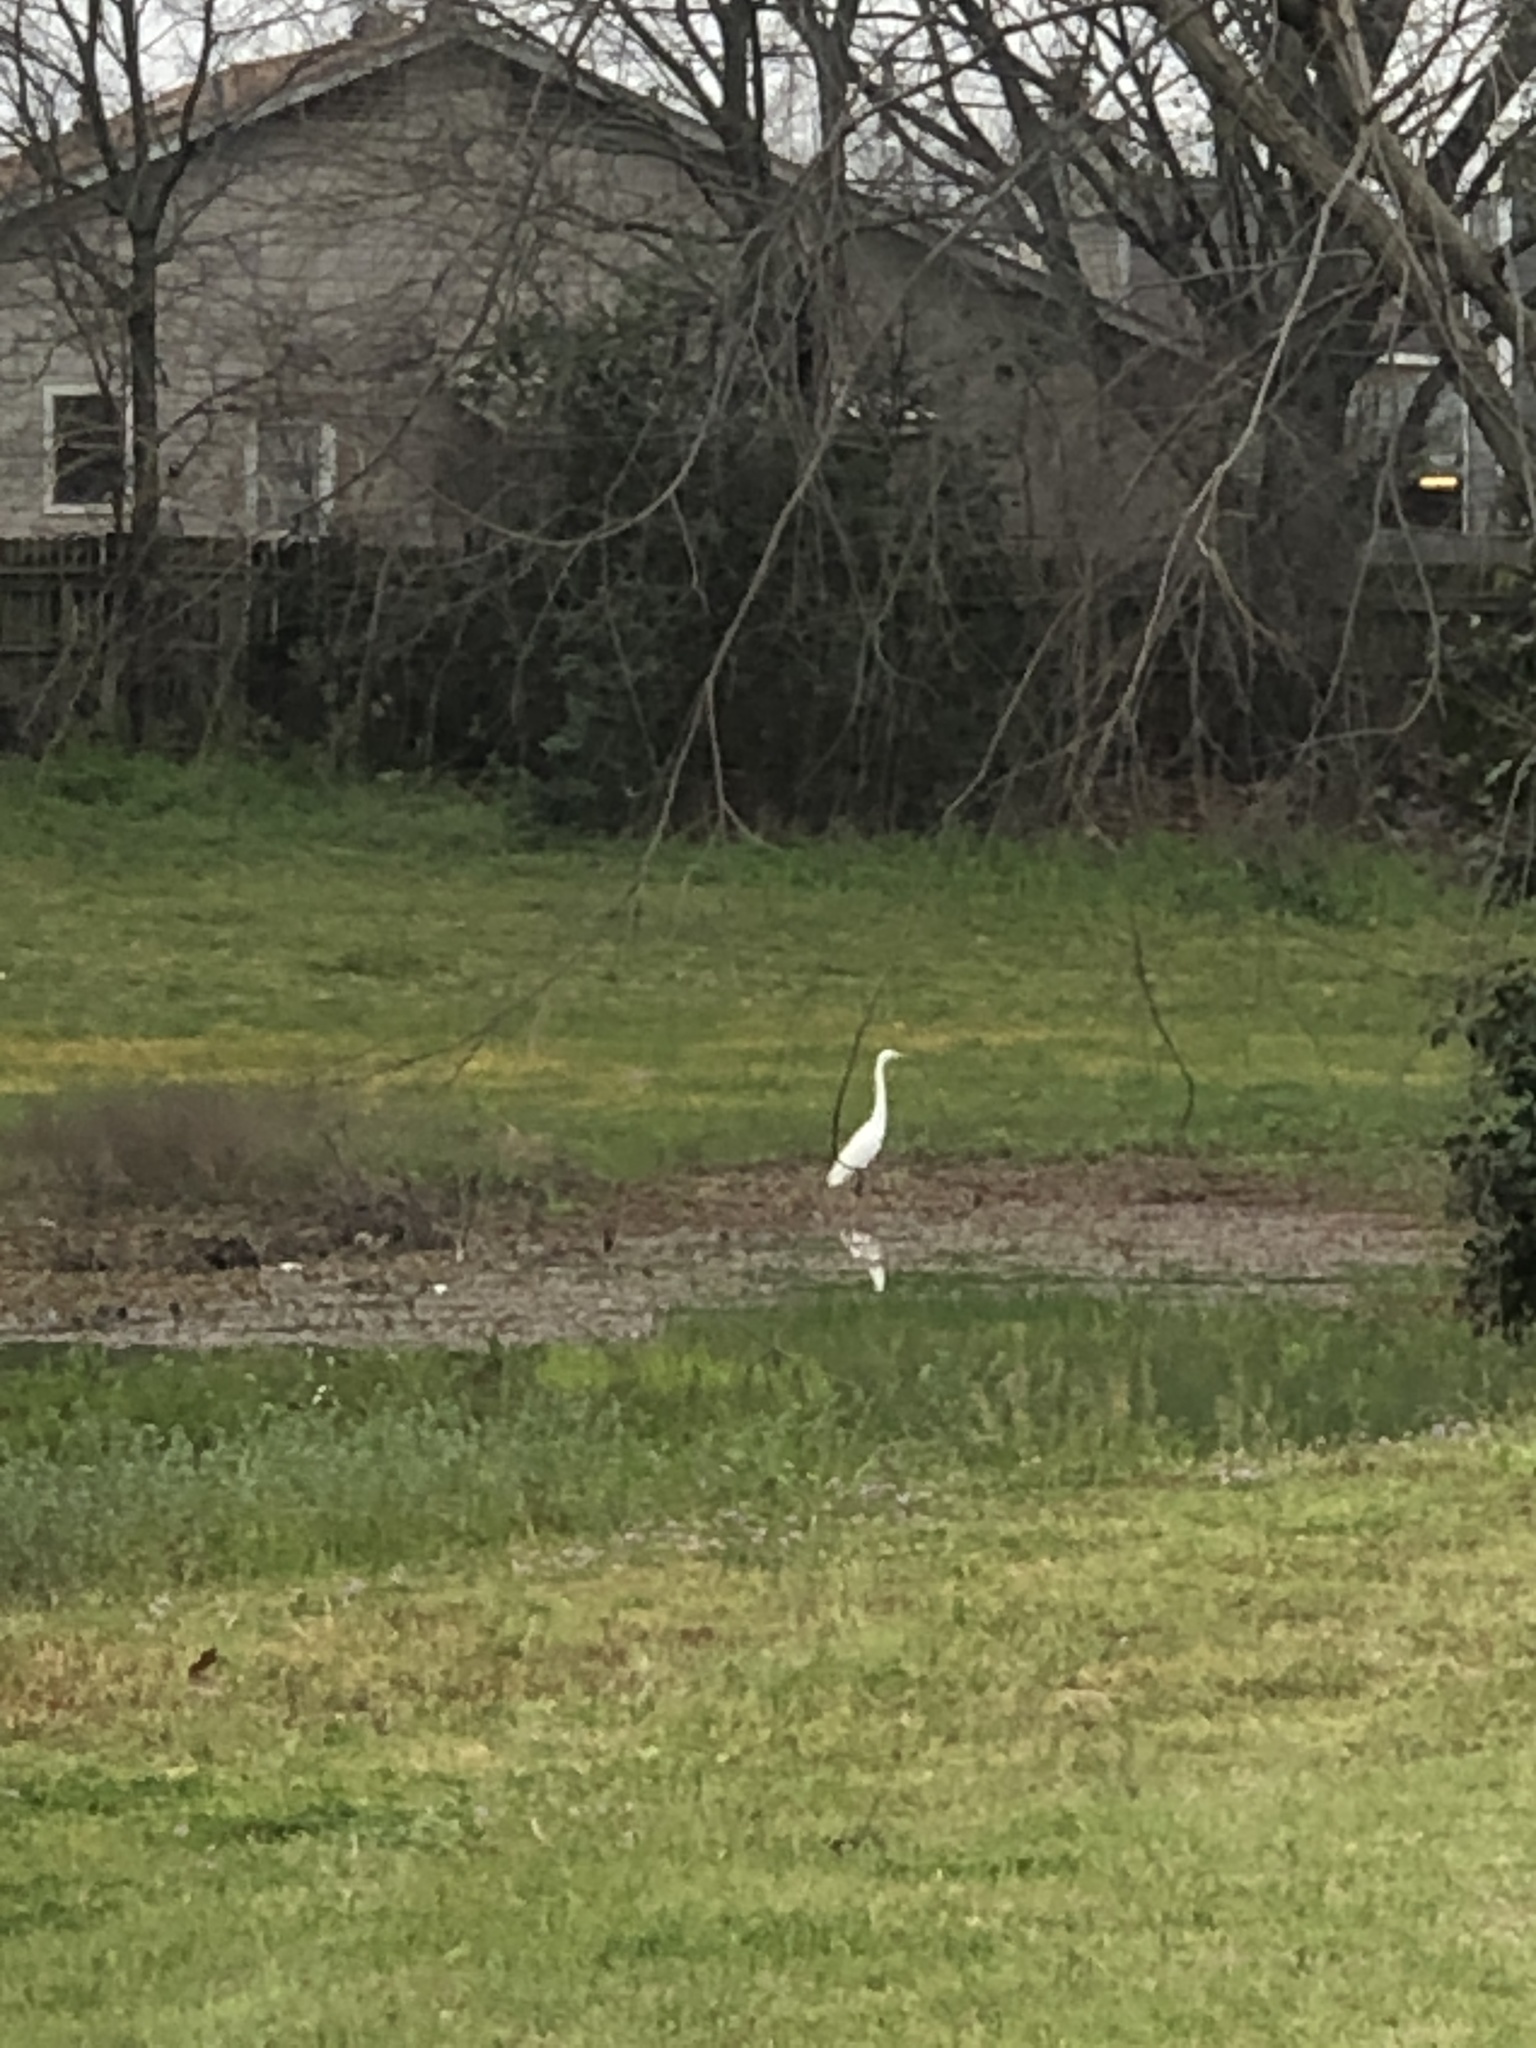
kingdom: Animalia
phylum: Chordata
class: Aves
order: Pelecaniformes
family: Ardeidae
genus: Ardea
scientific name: Ardea alba
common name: Great egret
